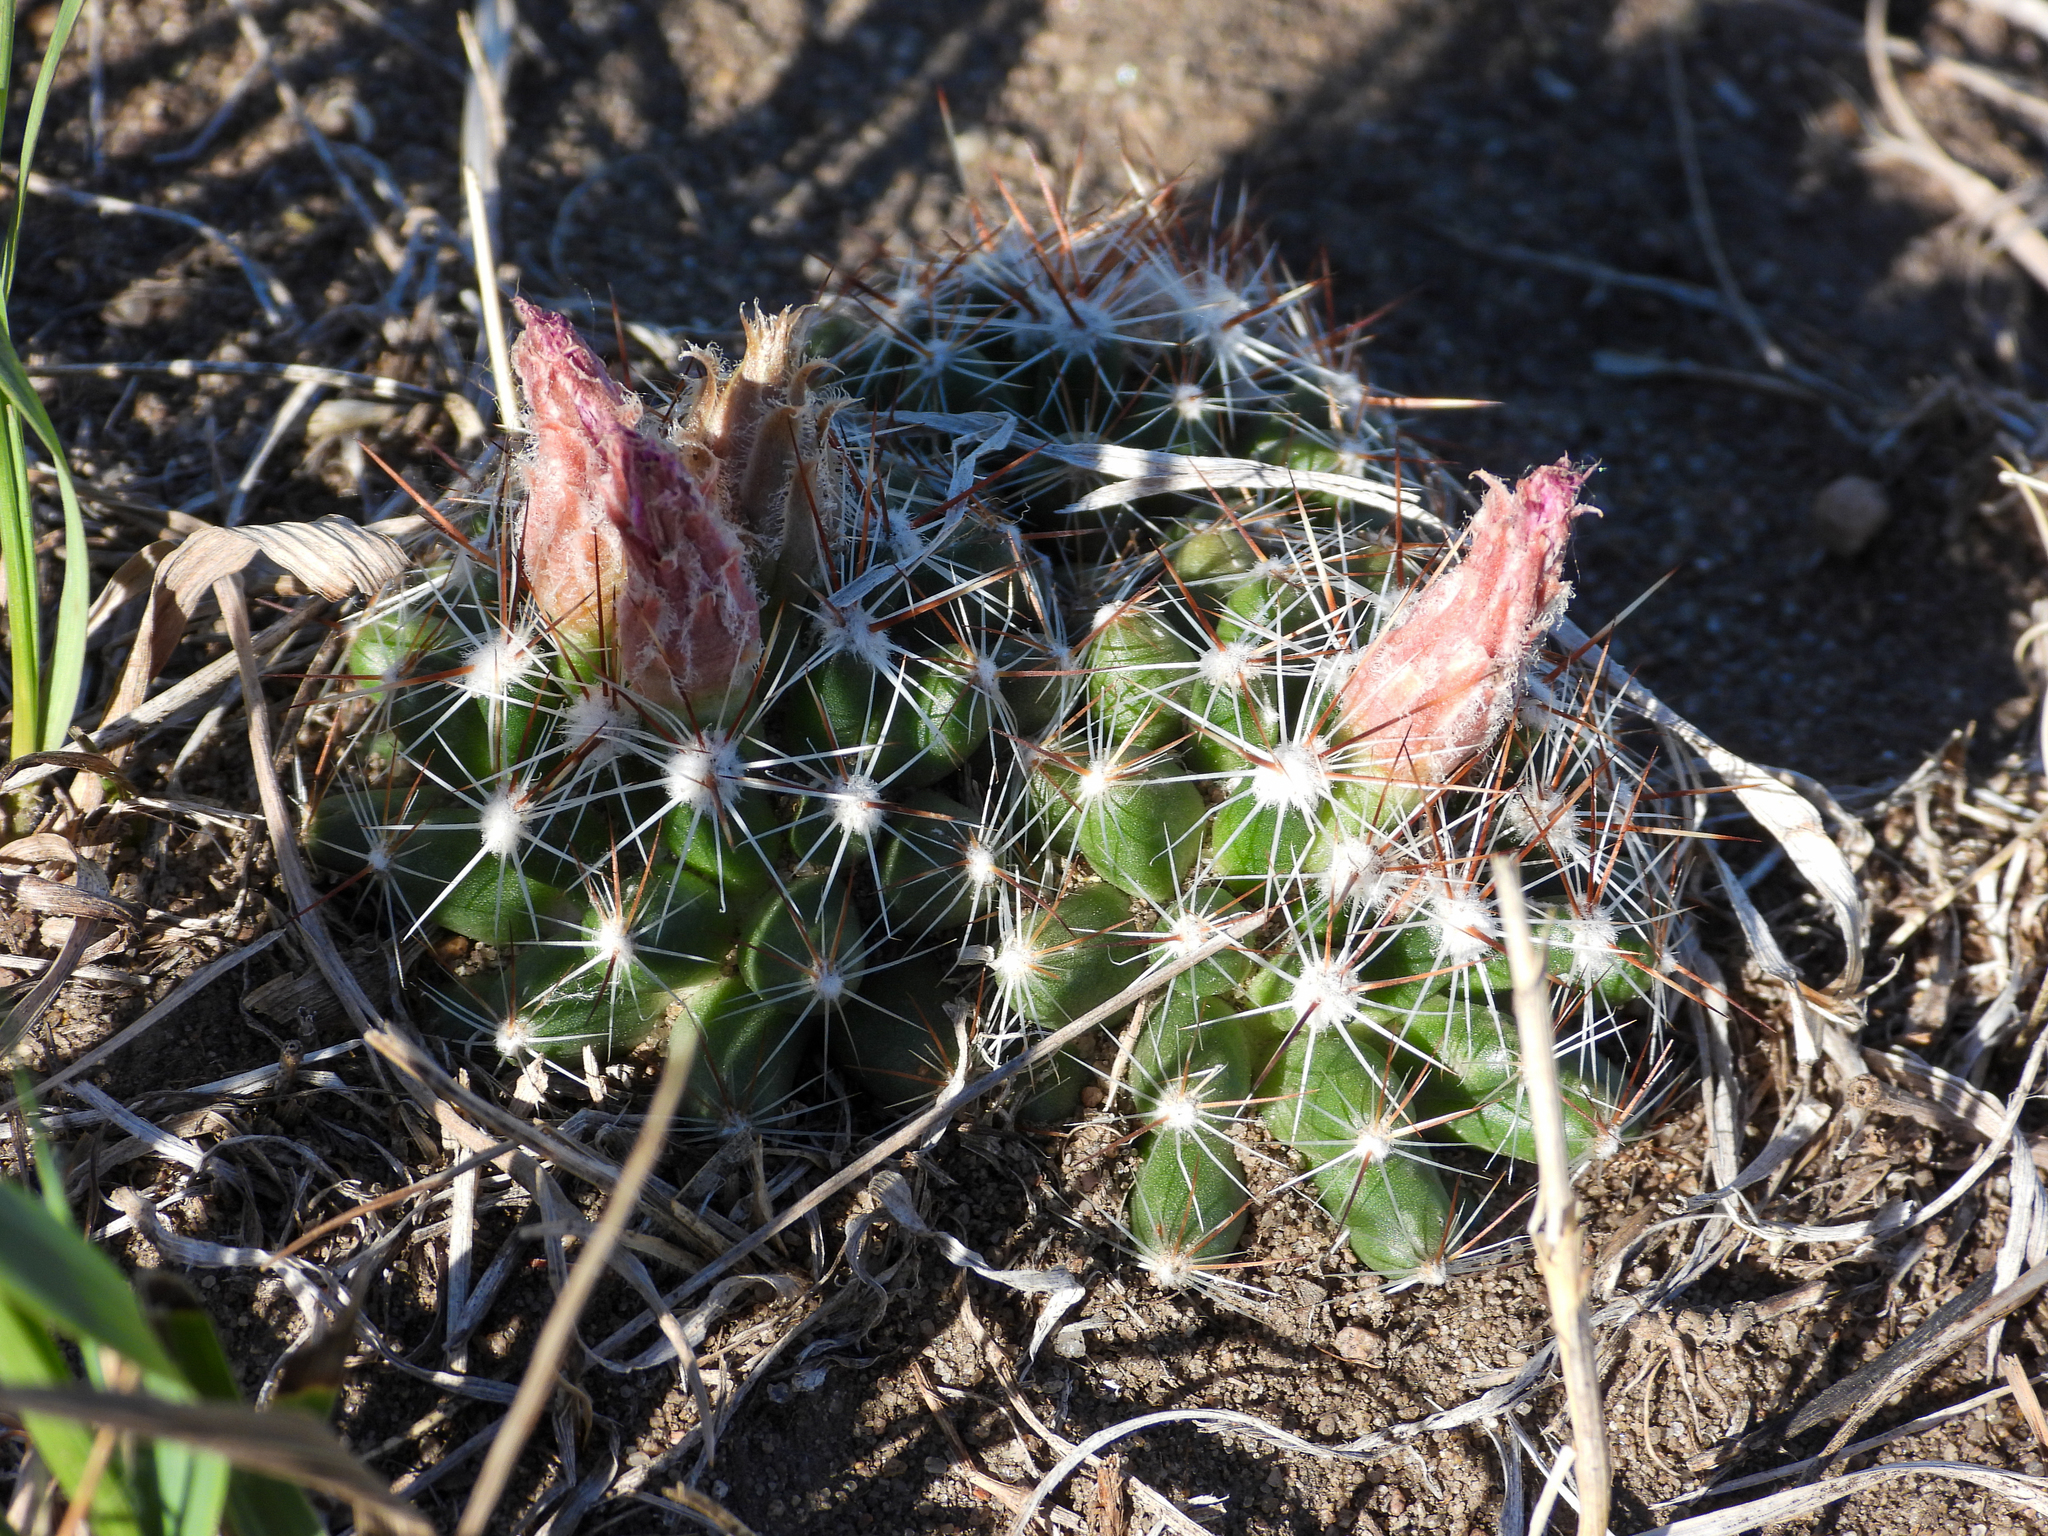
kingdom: Plantae
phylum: Tracheophyta
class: Magnoliopsida
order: Caryophyllales
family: Cactaceae
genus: Pelecyphora
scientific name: Pelecyphora vivipara
